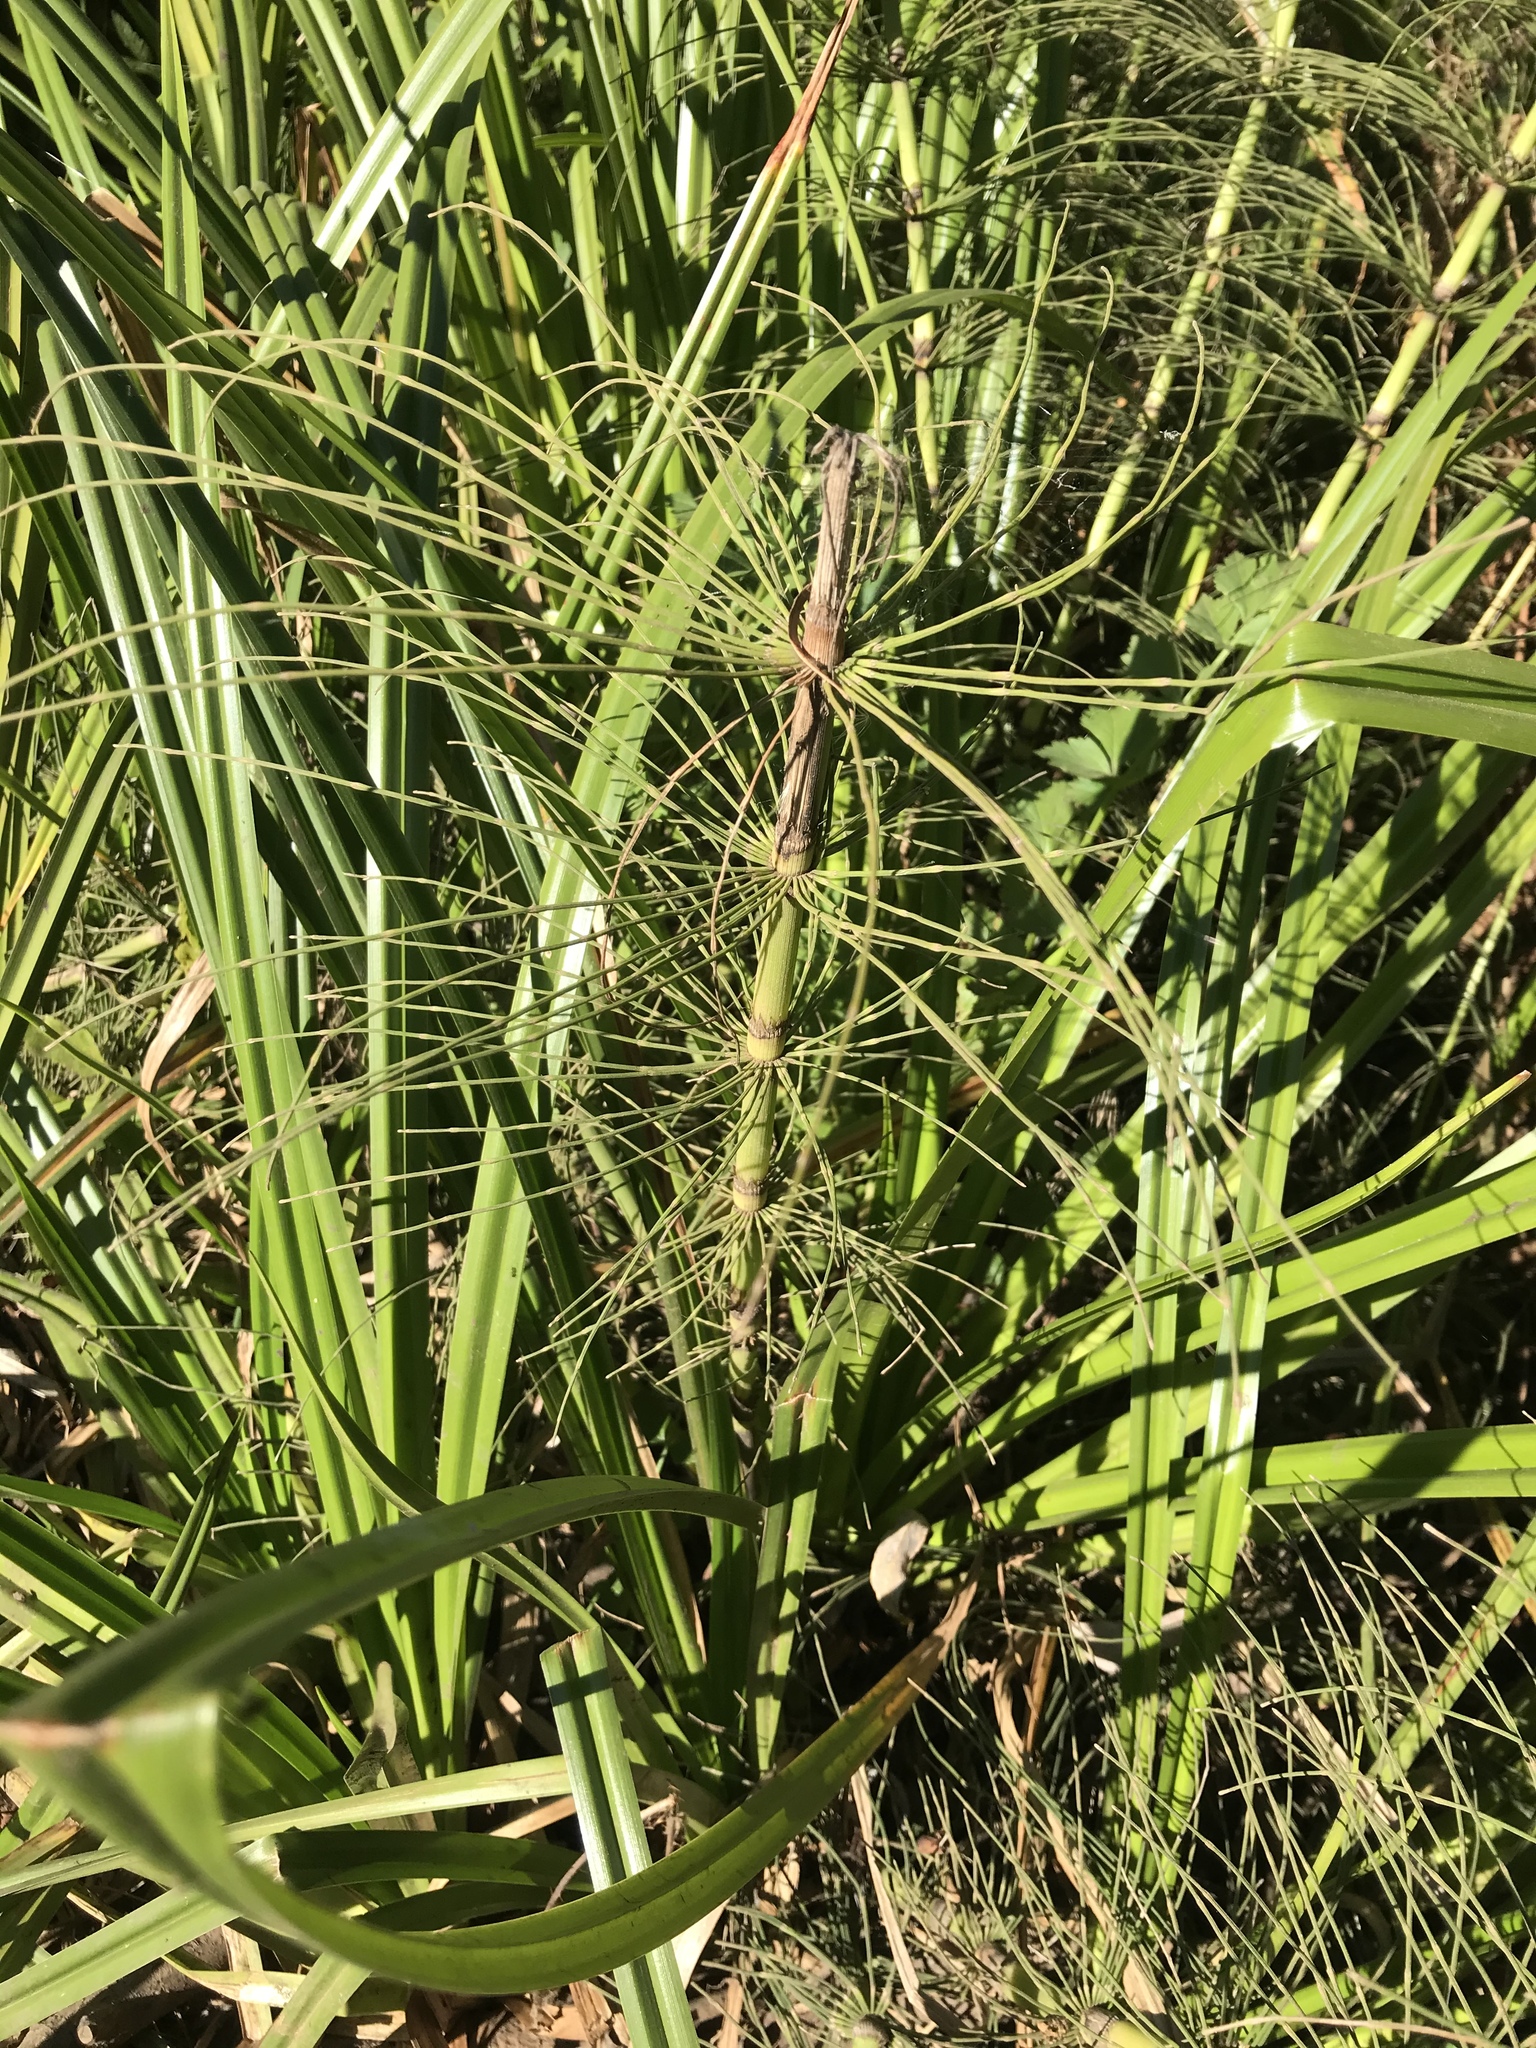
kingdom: Plantae
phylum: Tracheophyta
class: Polypodiopsida
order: Equisetales
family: Equisetaceae
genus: Equisetum
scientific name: Equisetum braunii
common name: Braun's horsetail
